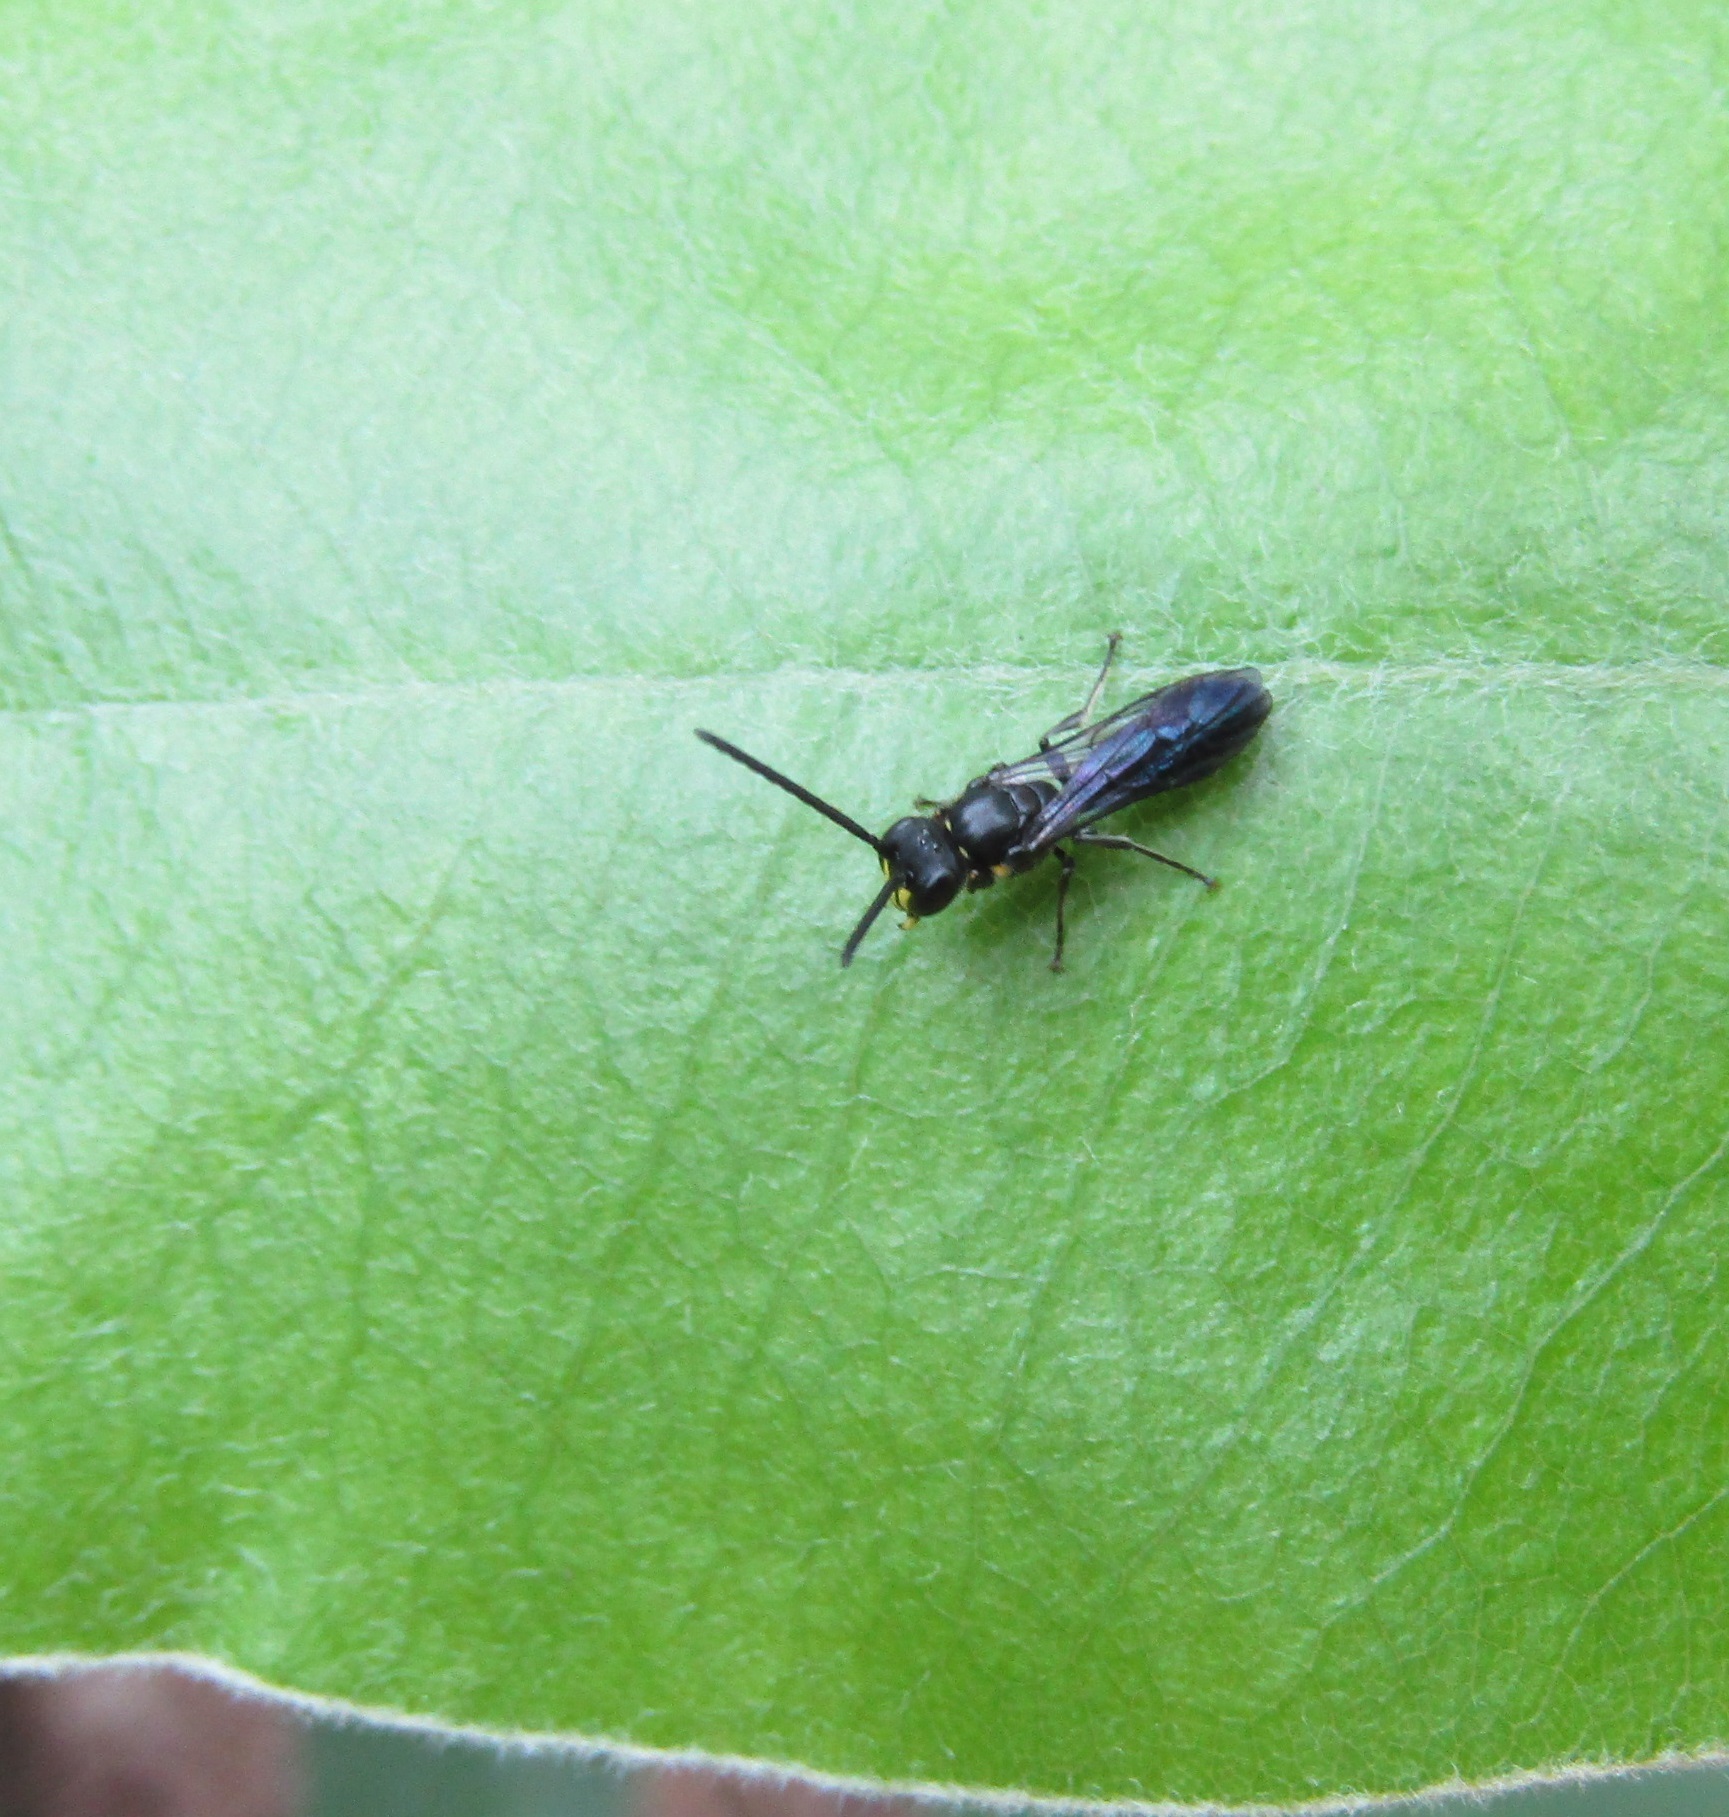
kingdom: Animalia
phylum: Arthropoda
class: Insecta
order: Hymenoptera
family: Colletidae
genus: Hylaeus
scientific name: Hylaeus agilis
